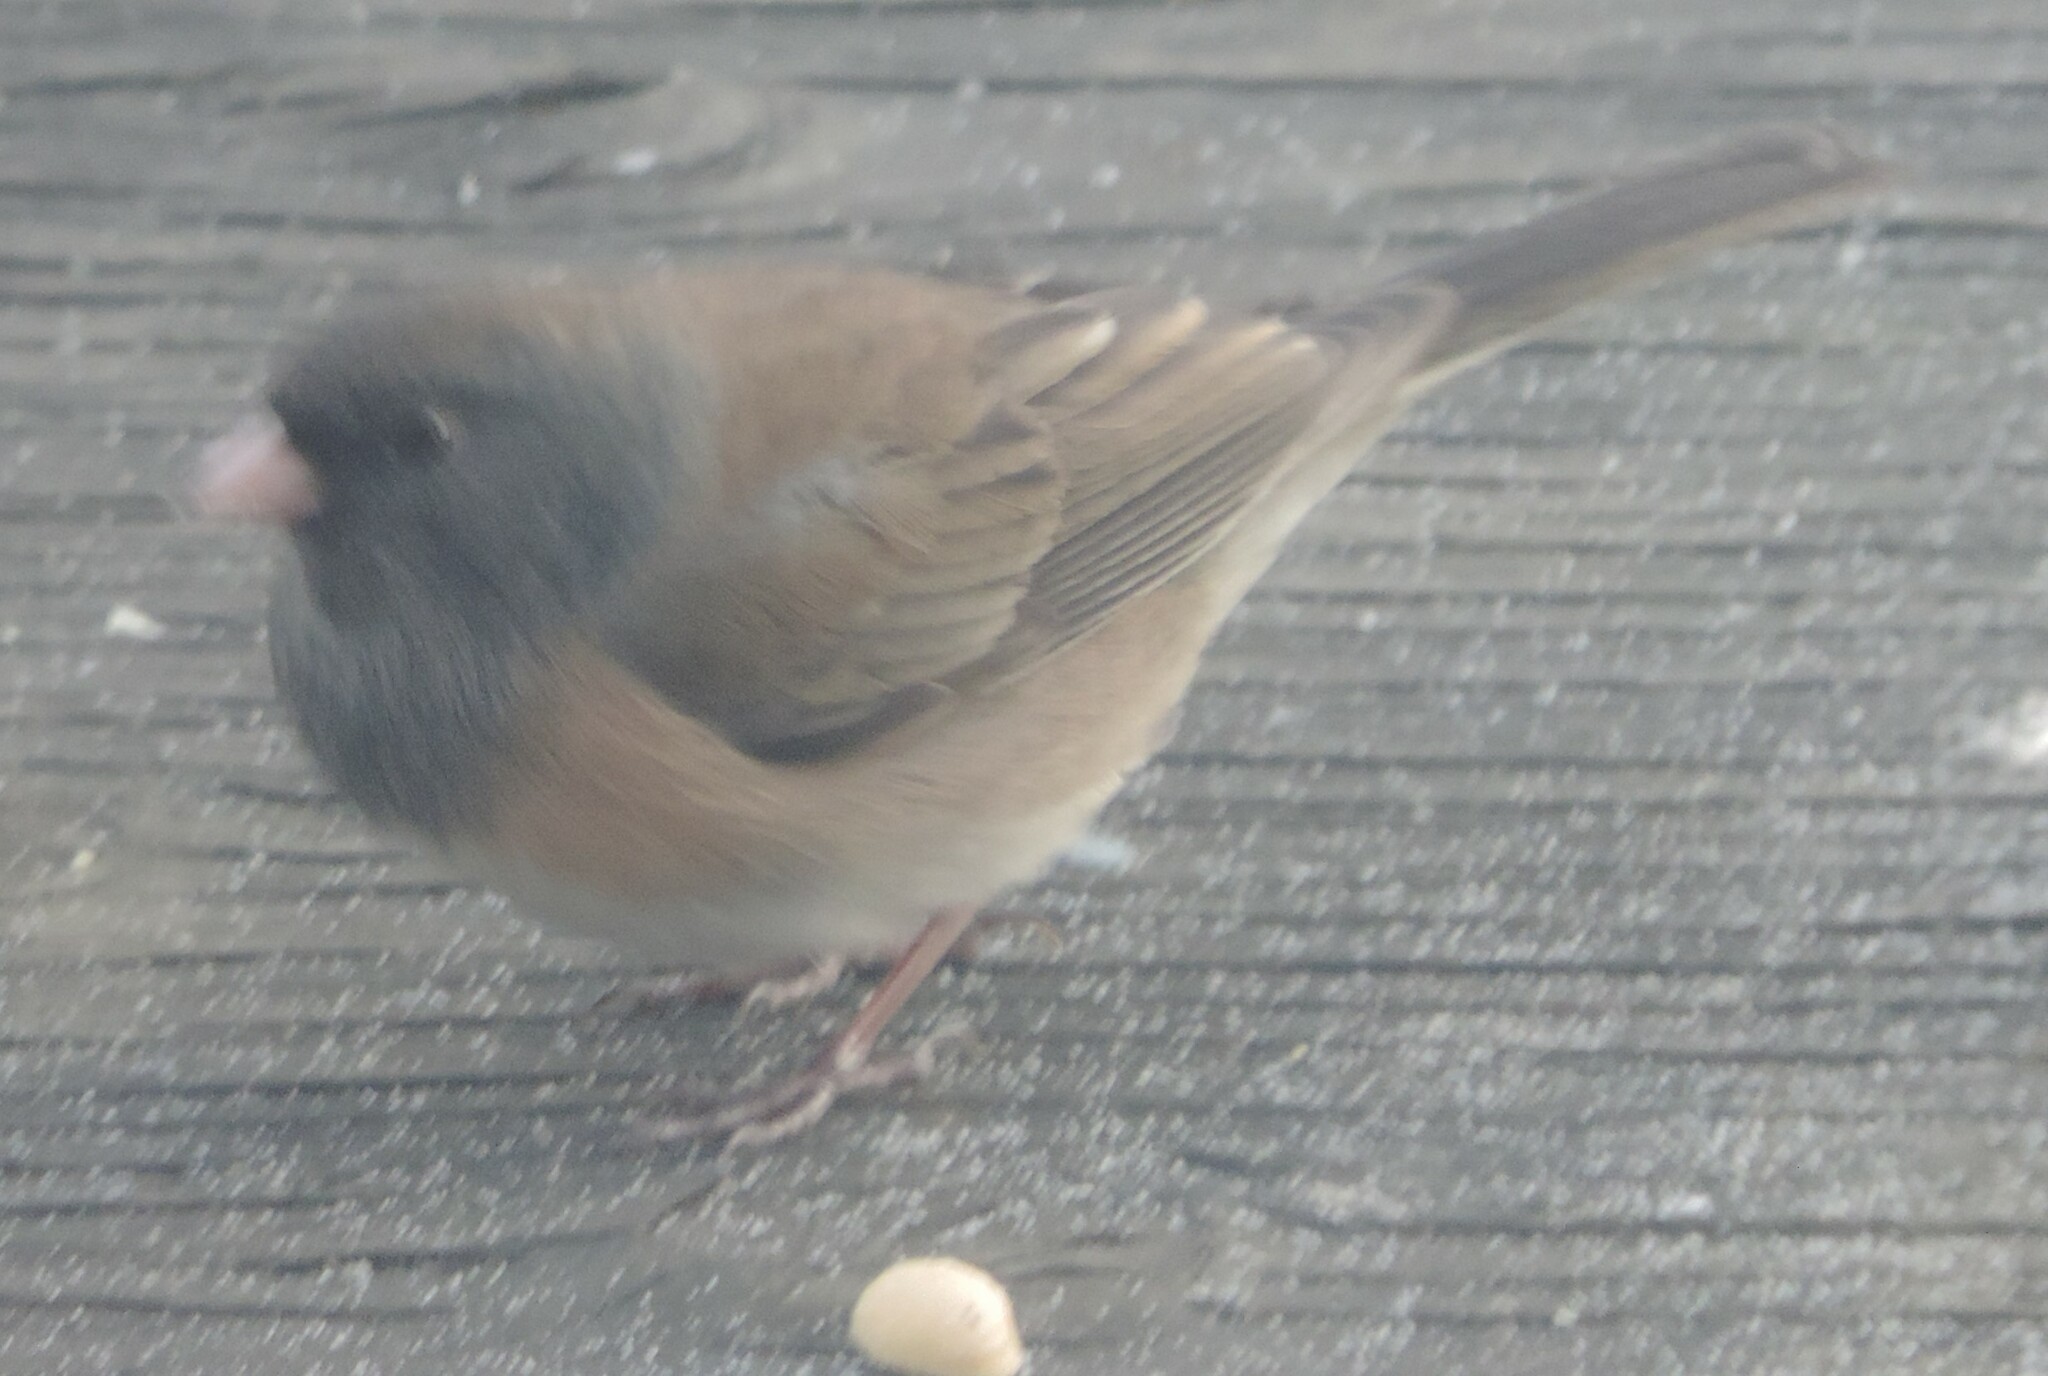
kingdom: Animalia
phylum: Chordata
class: Aves
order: Passeriformes
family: Passerellidae
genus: Junco
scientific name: Junco hyemalis
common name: Dark-eyed junco
